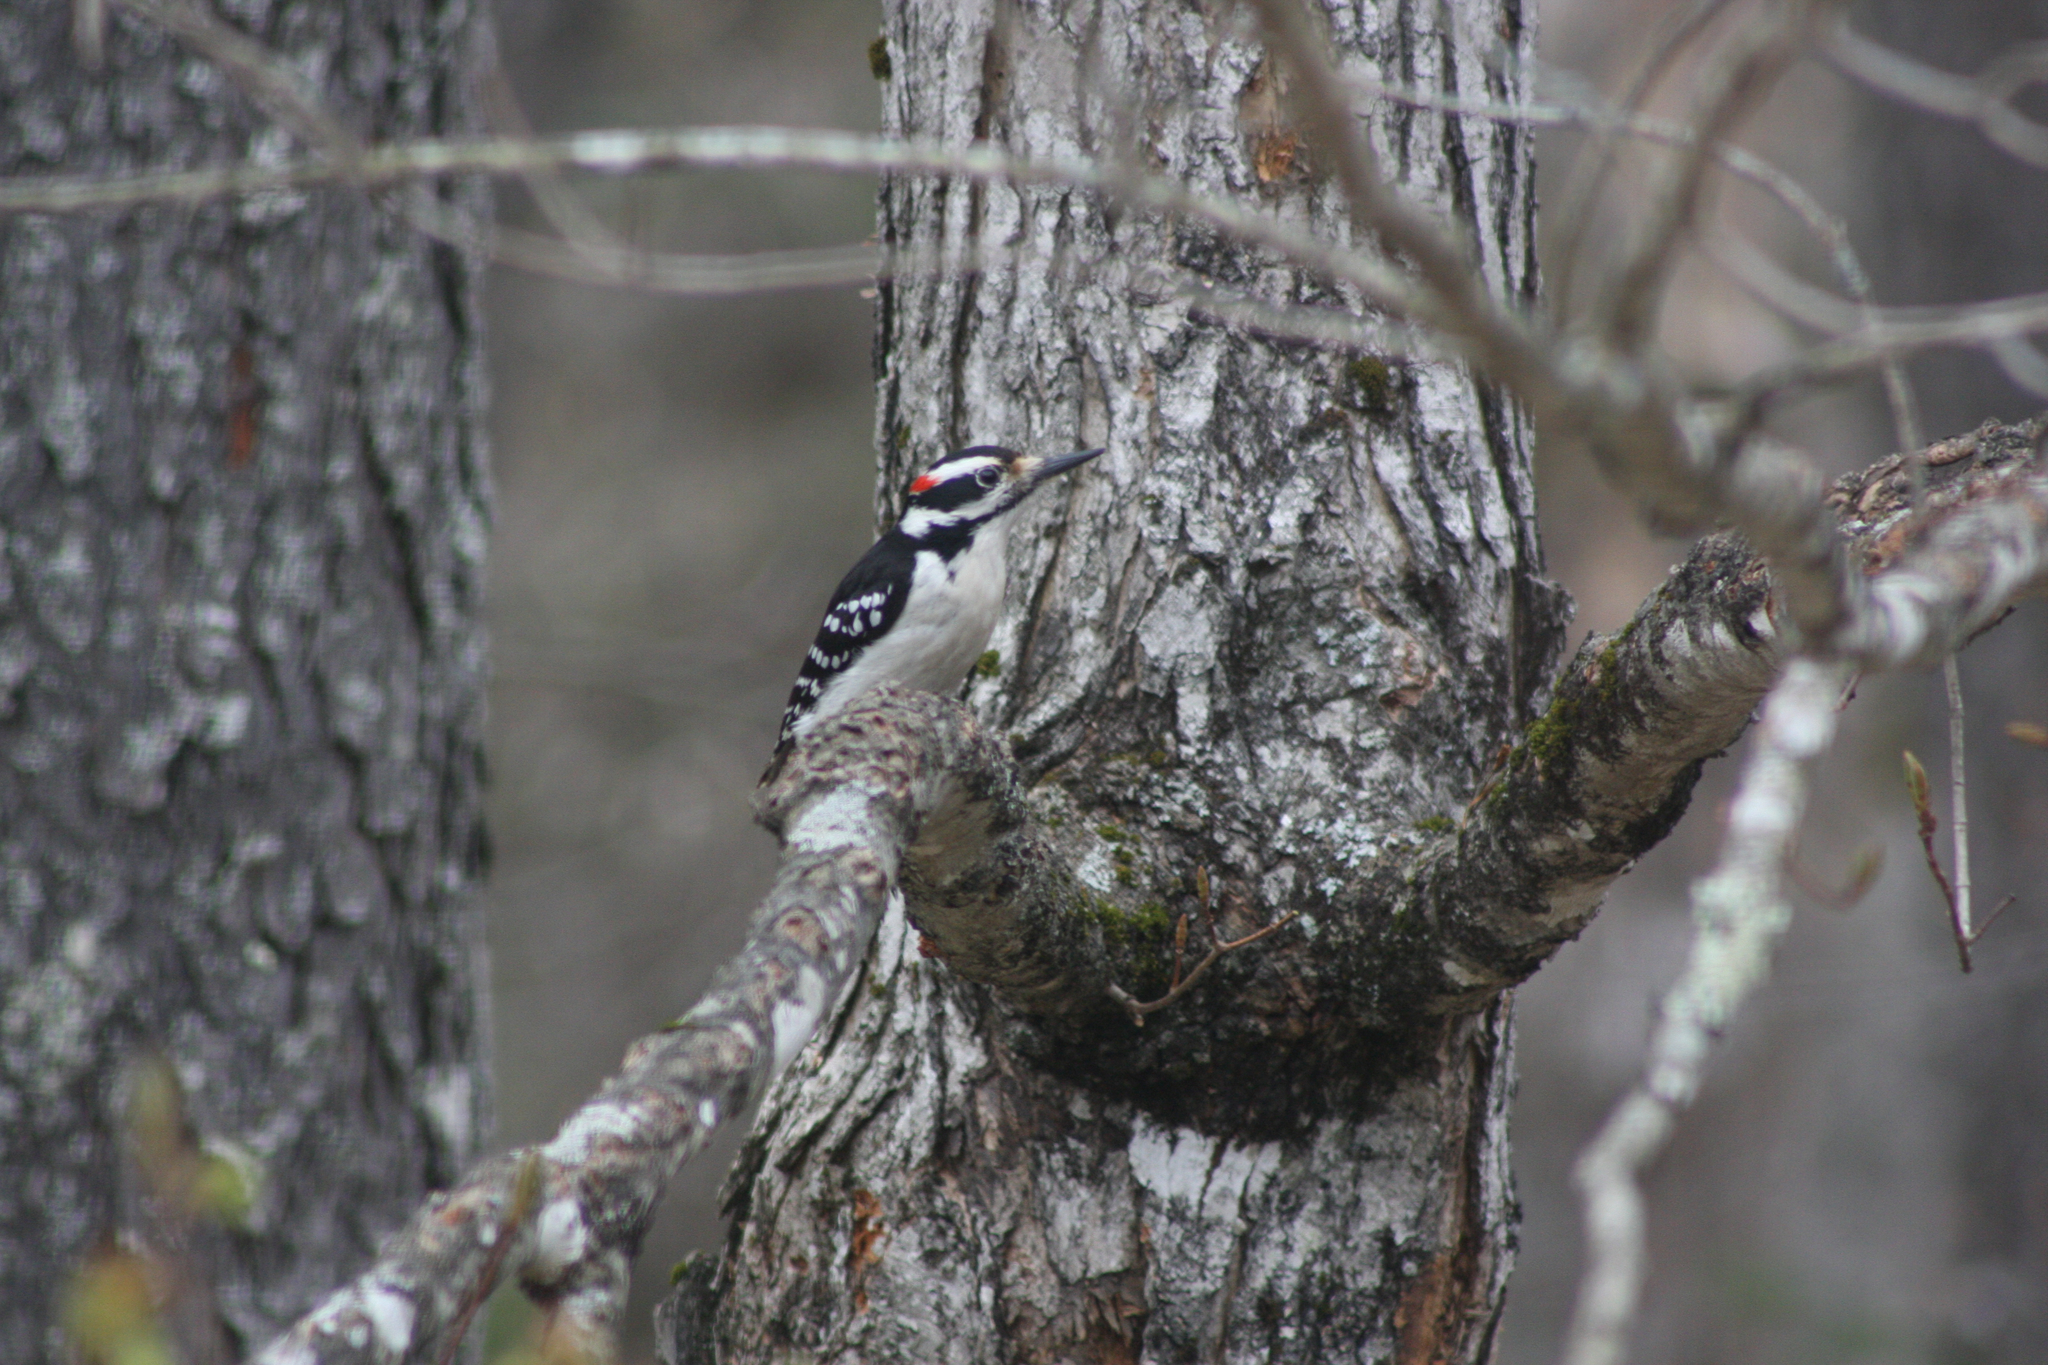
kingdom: Animalia
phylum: Chordata
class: Aves
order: Piciformes
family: Picidae
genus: Leuconotopicus
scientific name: Leuconotopicus villosus
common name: Hairy woodpecker
